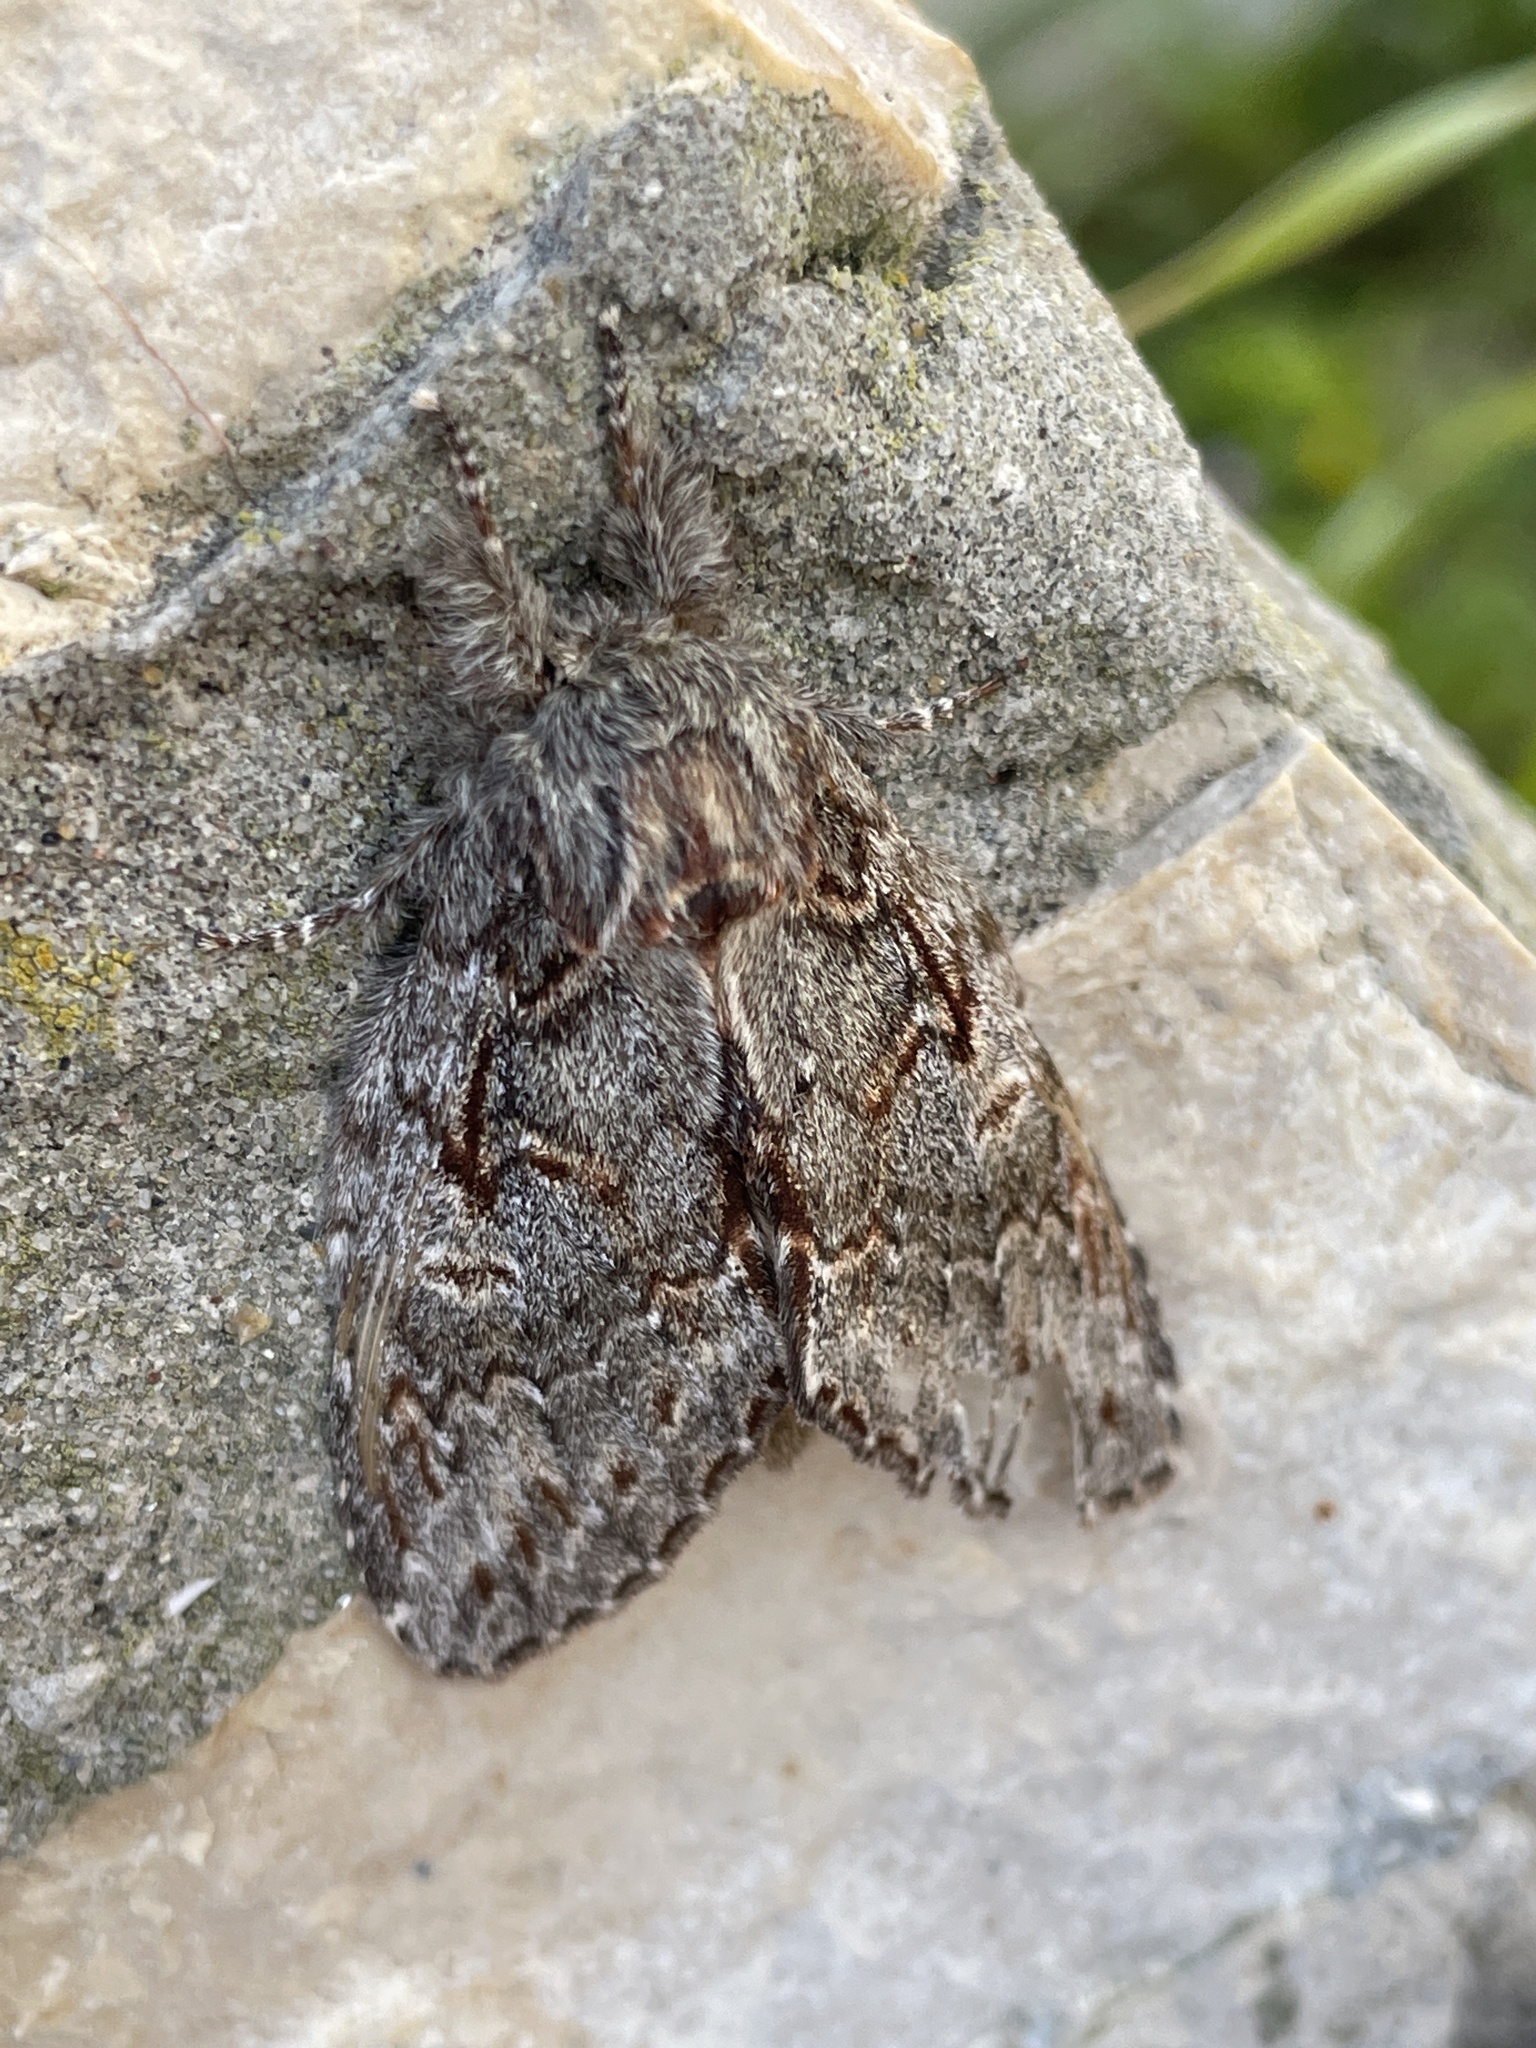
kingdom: Animalia
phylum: Arthropoda
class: Insecta
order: Lepidoptera
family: Notodontidae
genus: Peridea
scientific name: Peridea anceps
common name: Great prominent
